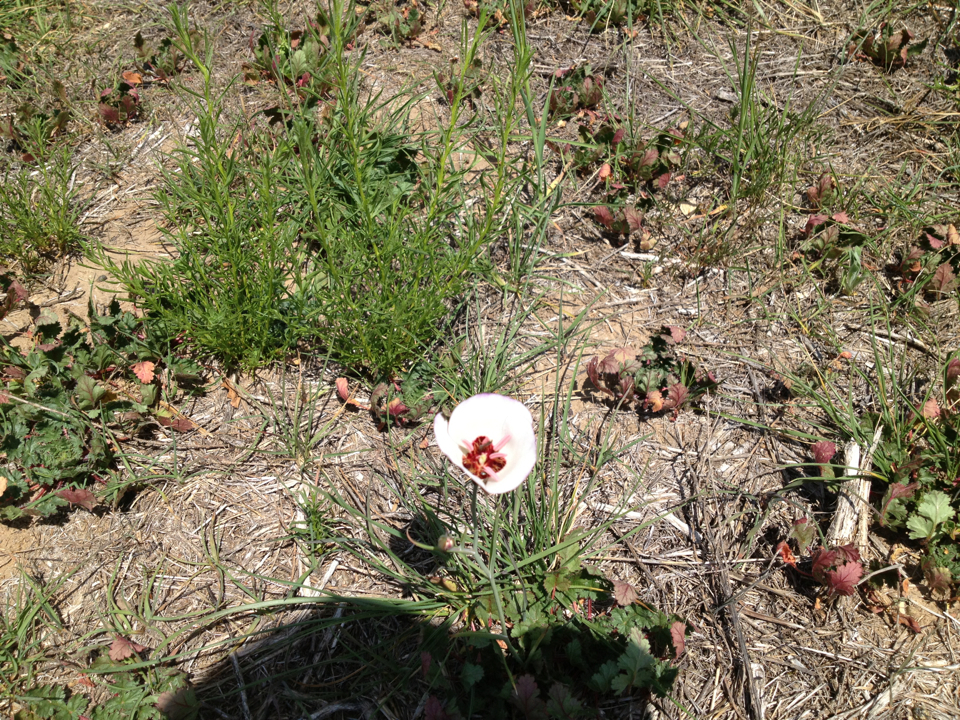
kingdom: Plantae
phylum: Tracheophyta
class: Liliopsida
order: Liliales
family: Liliaceae
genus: Calochortus
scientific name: Calochortus catalinae
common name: Catalina mariposa-lily
